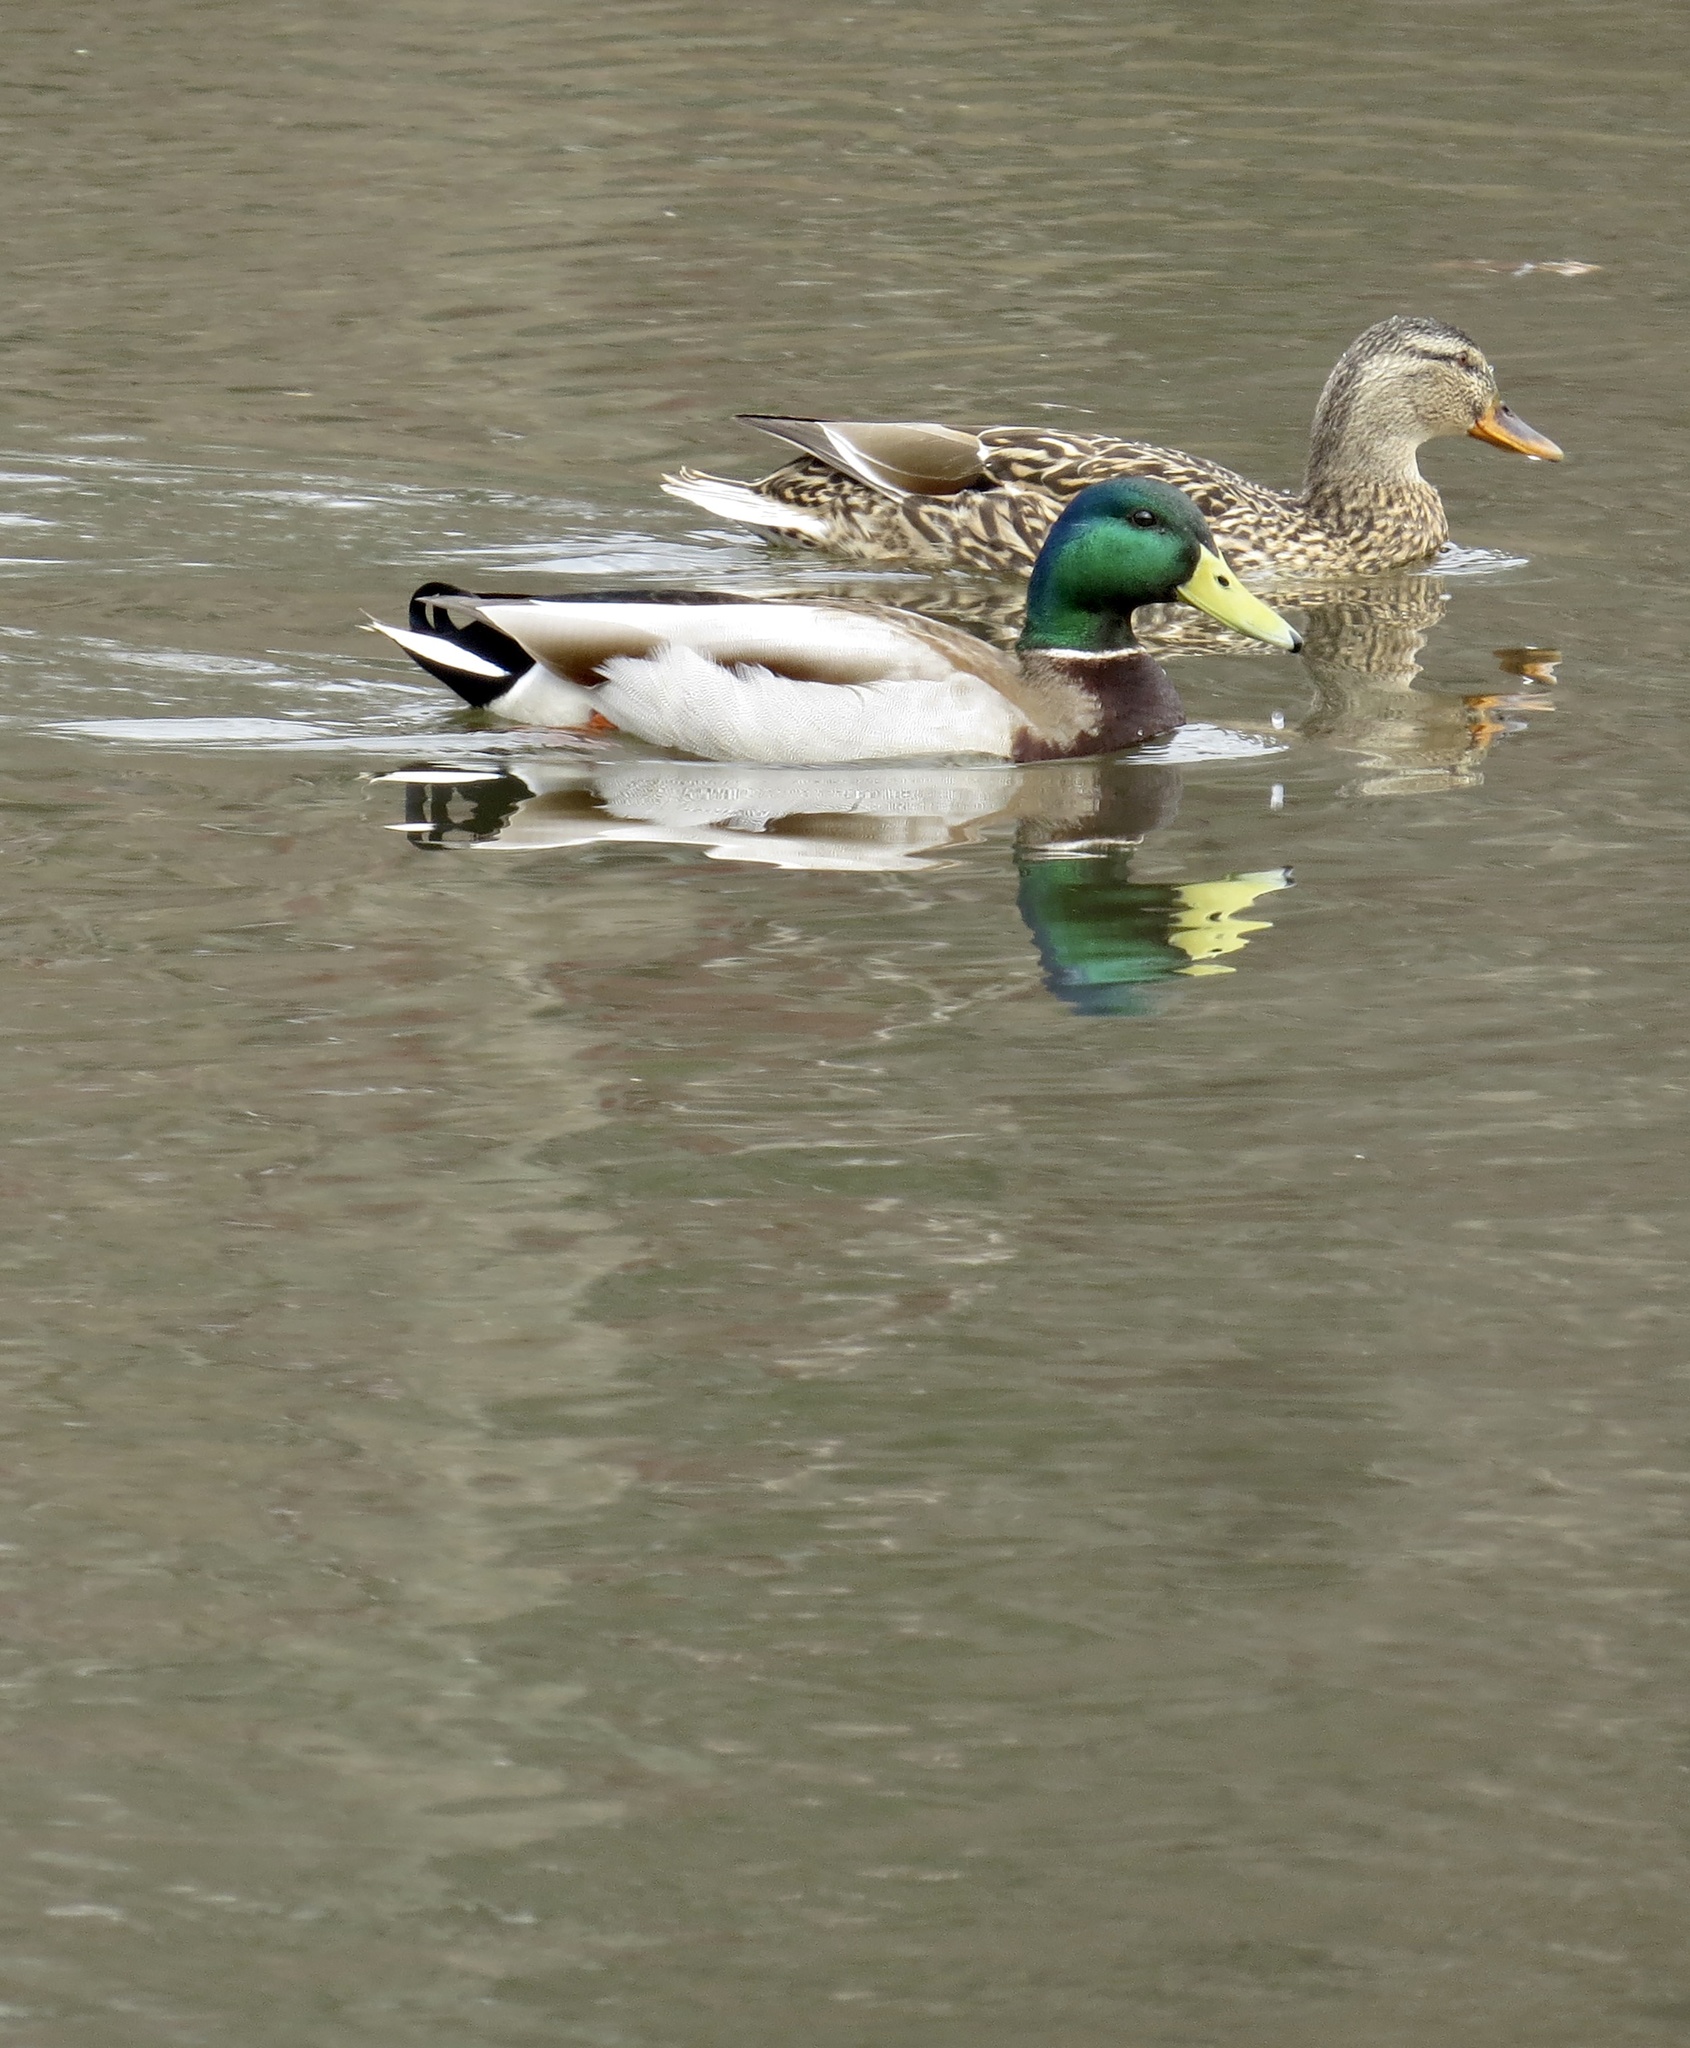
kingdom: Animalia
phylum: Chordata
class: Aves
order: Anseriformes
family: Anatidae
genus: Anas
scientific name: Anas platyrhynchos
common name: Mallard
